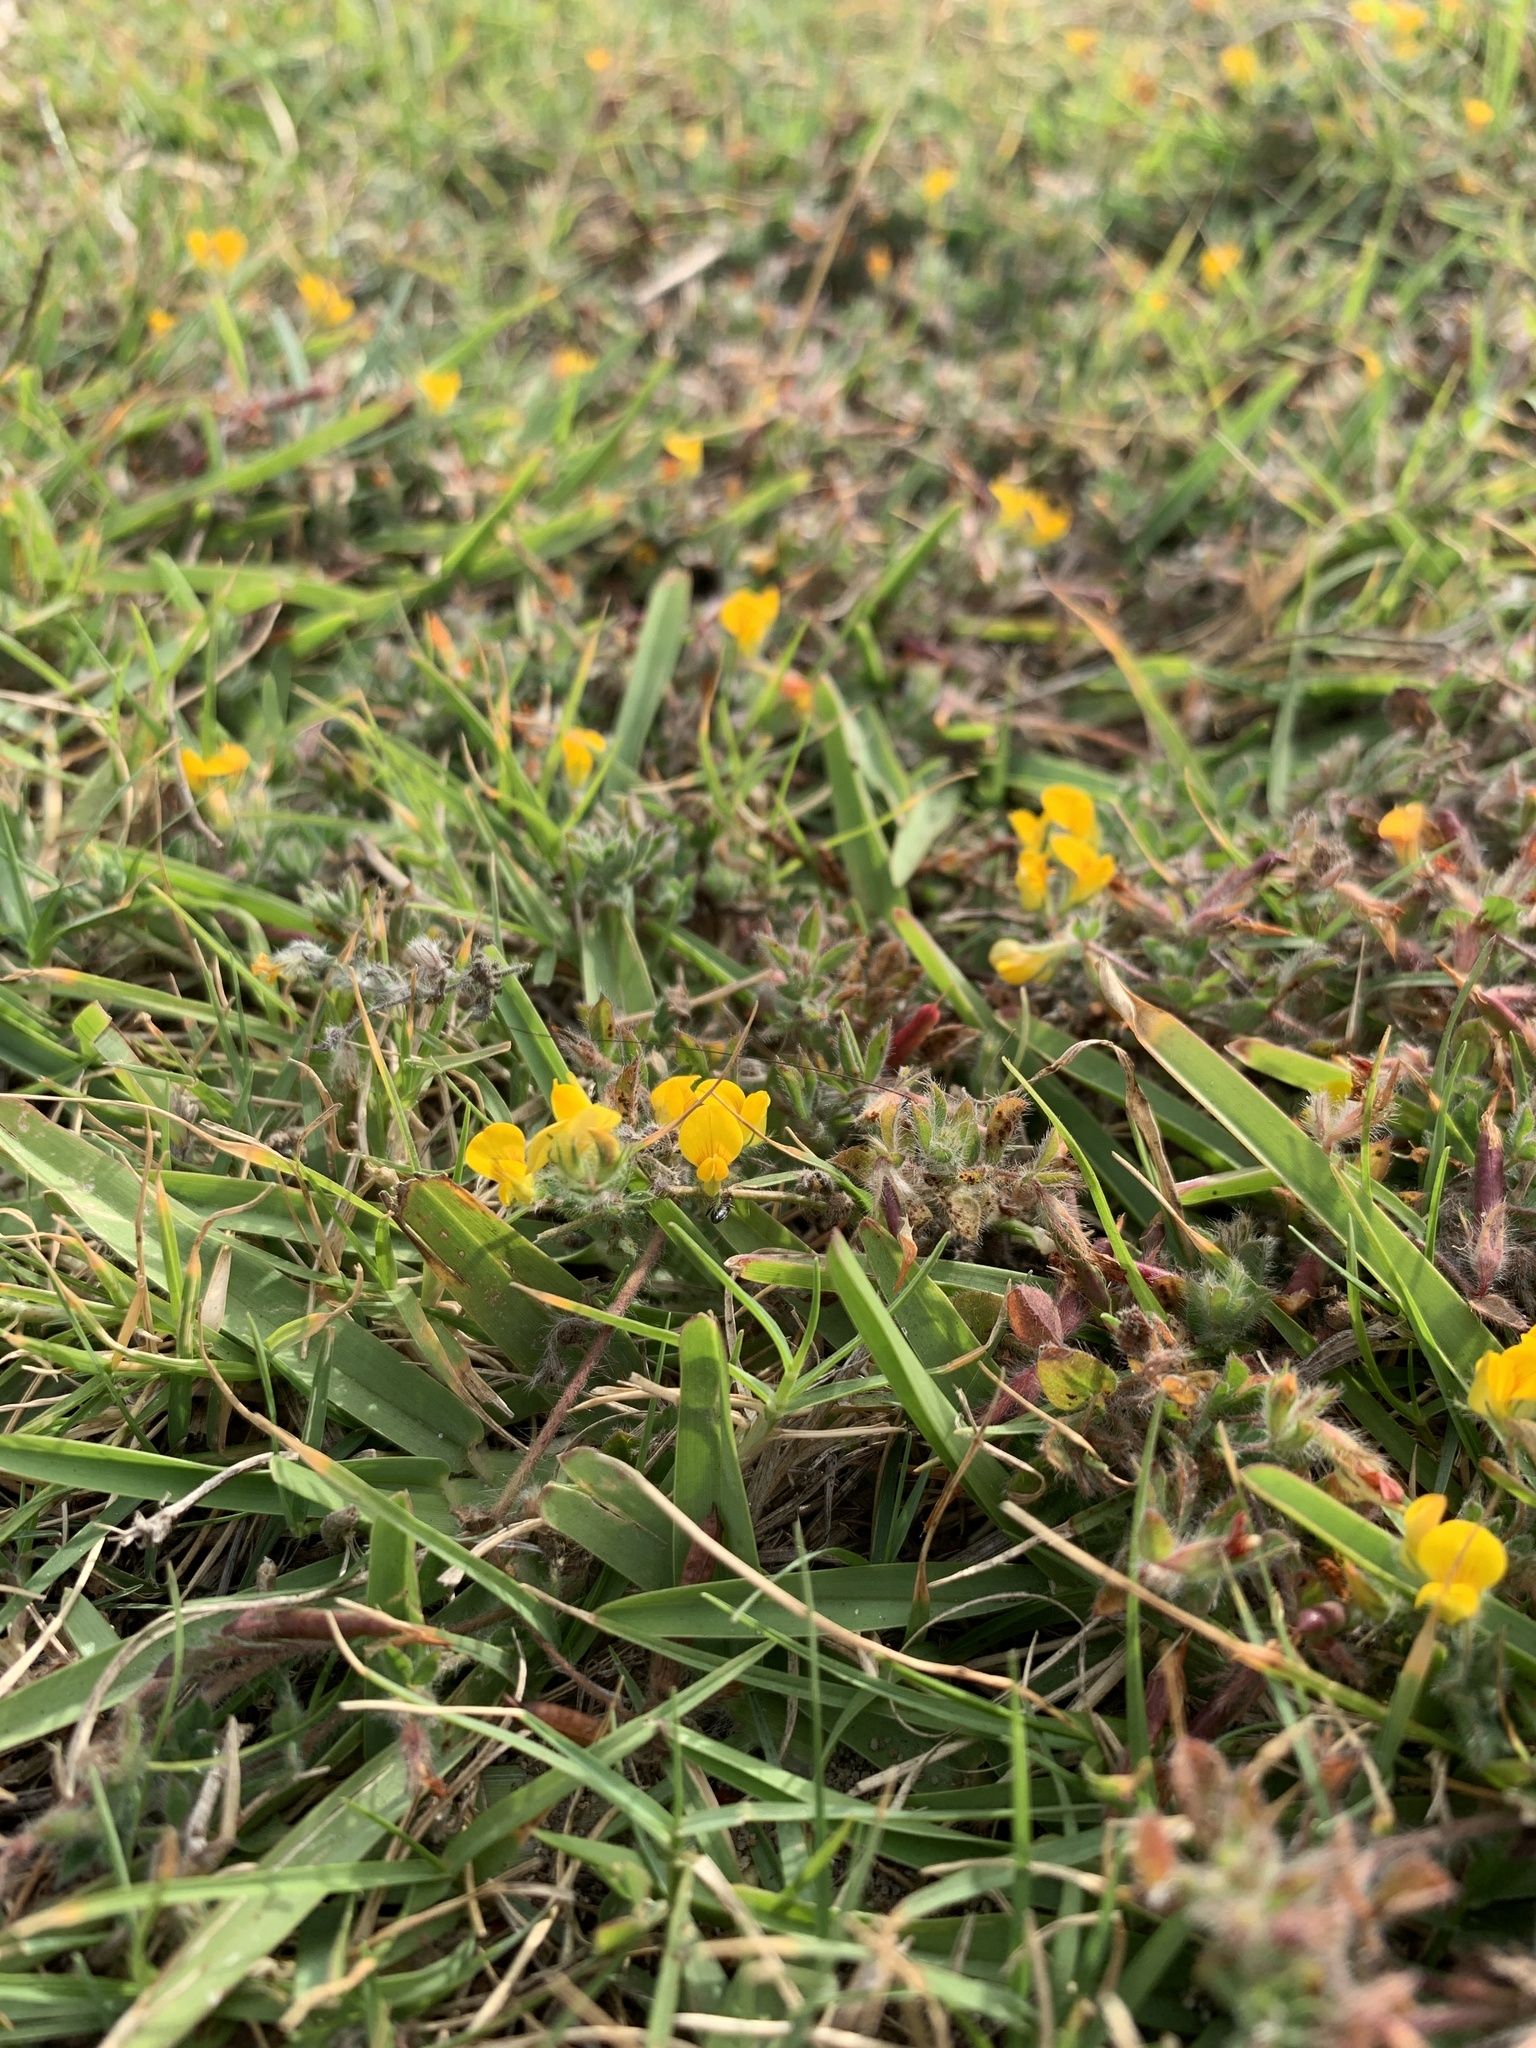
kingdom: Plantae
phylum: Tracheophyta
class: Magnoliopsida
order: Fabales
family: Fabaceae
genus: Lotus
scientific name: Lotus subbiflorus
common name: Hairy bird's-foot trefoil
